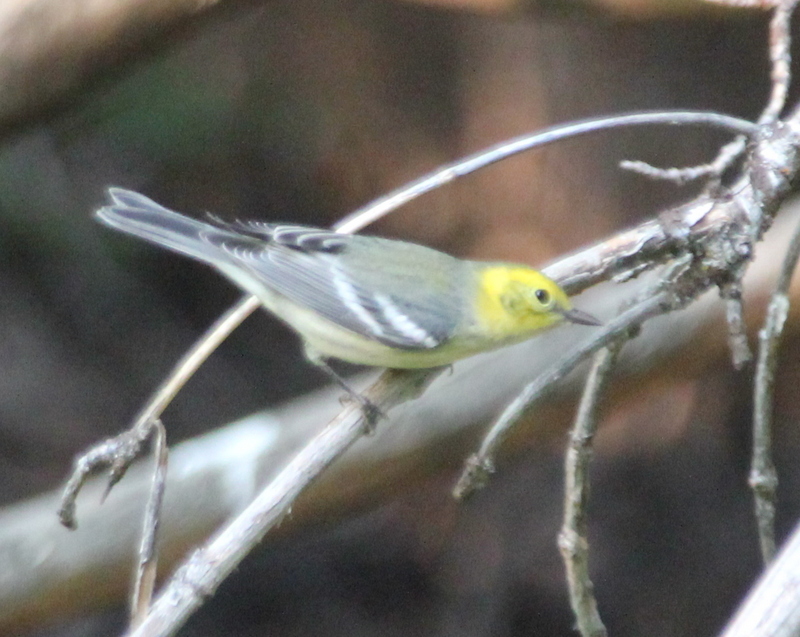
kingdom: Animalia
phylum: Chordata
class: Aves
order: Passeriformes
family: Parulidae
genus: Setophaga
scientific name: Setophaga occidentalis
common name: Hermit warbler
